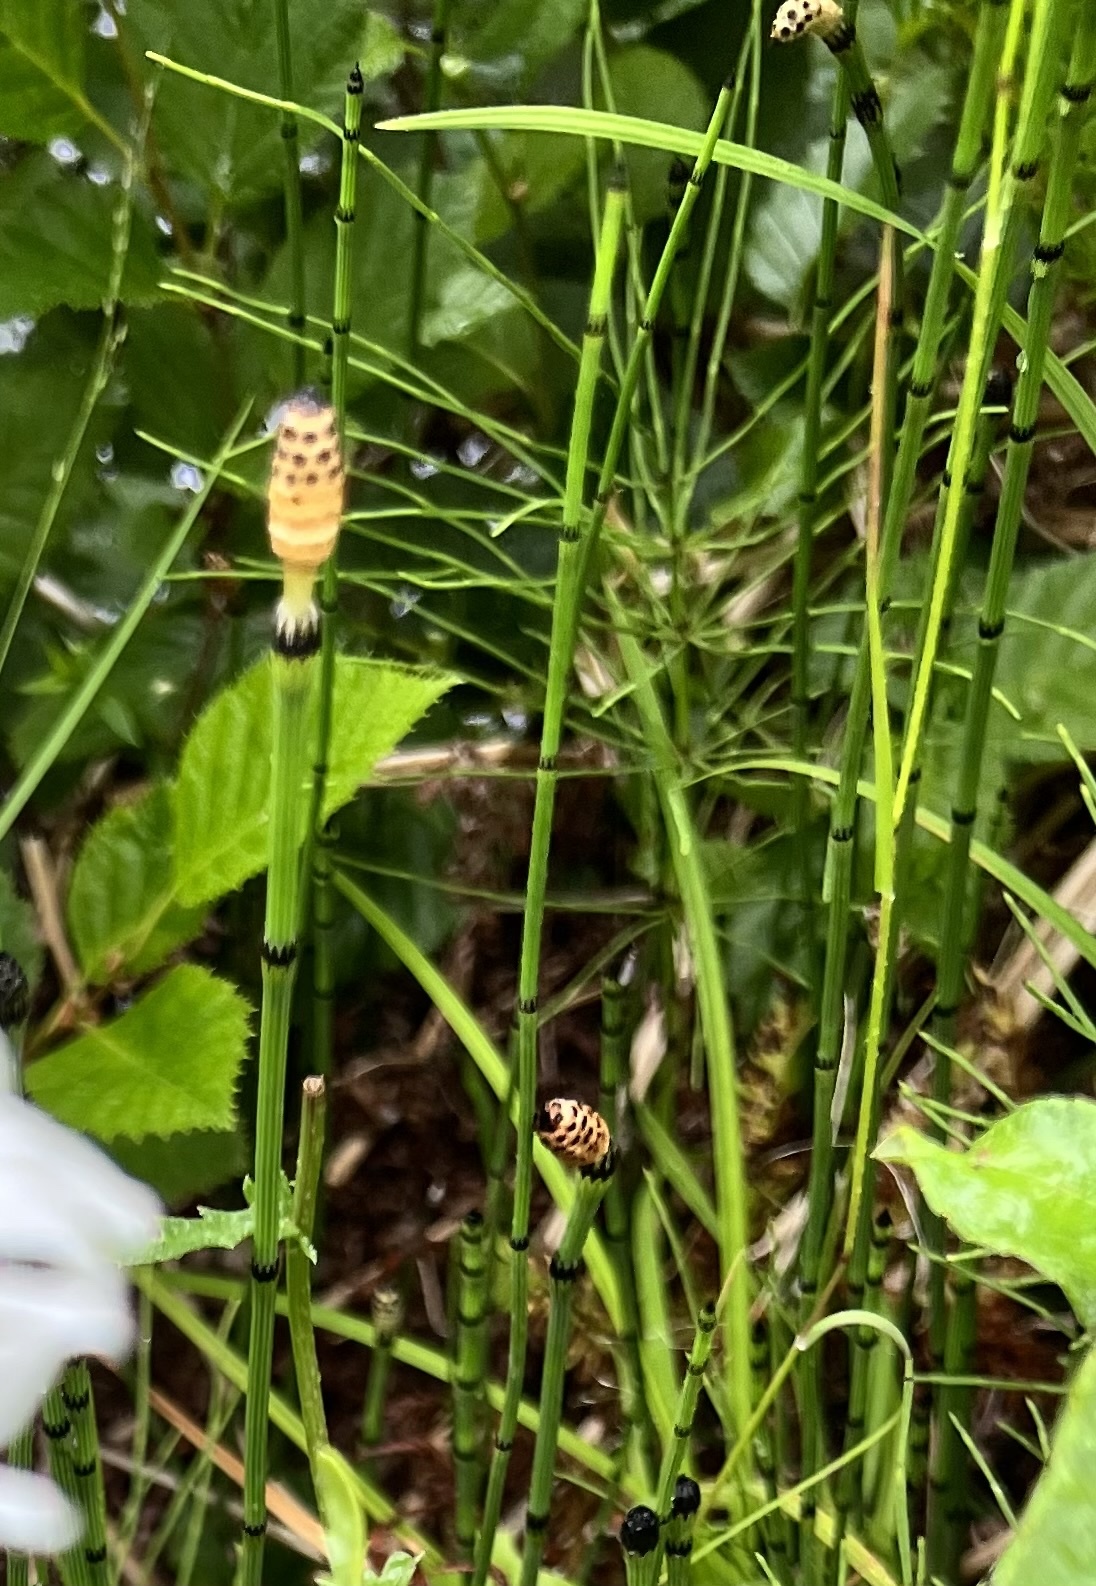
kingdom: Plantae
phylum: Tracheophyta
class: Polypodiopsida
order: Equisetales
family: Equisetaceae
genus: Equisetum
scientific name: Equisetum variegatum
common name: Variegated horsetail
